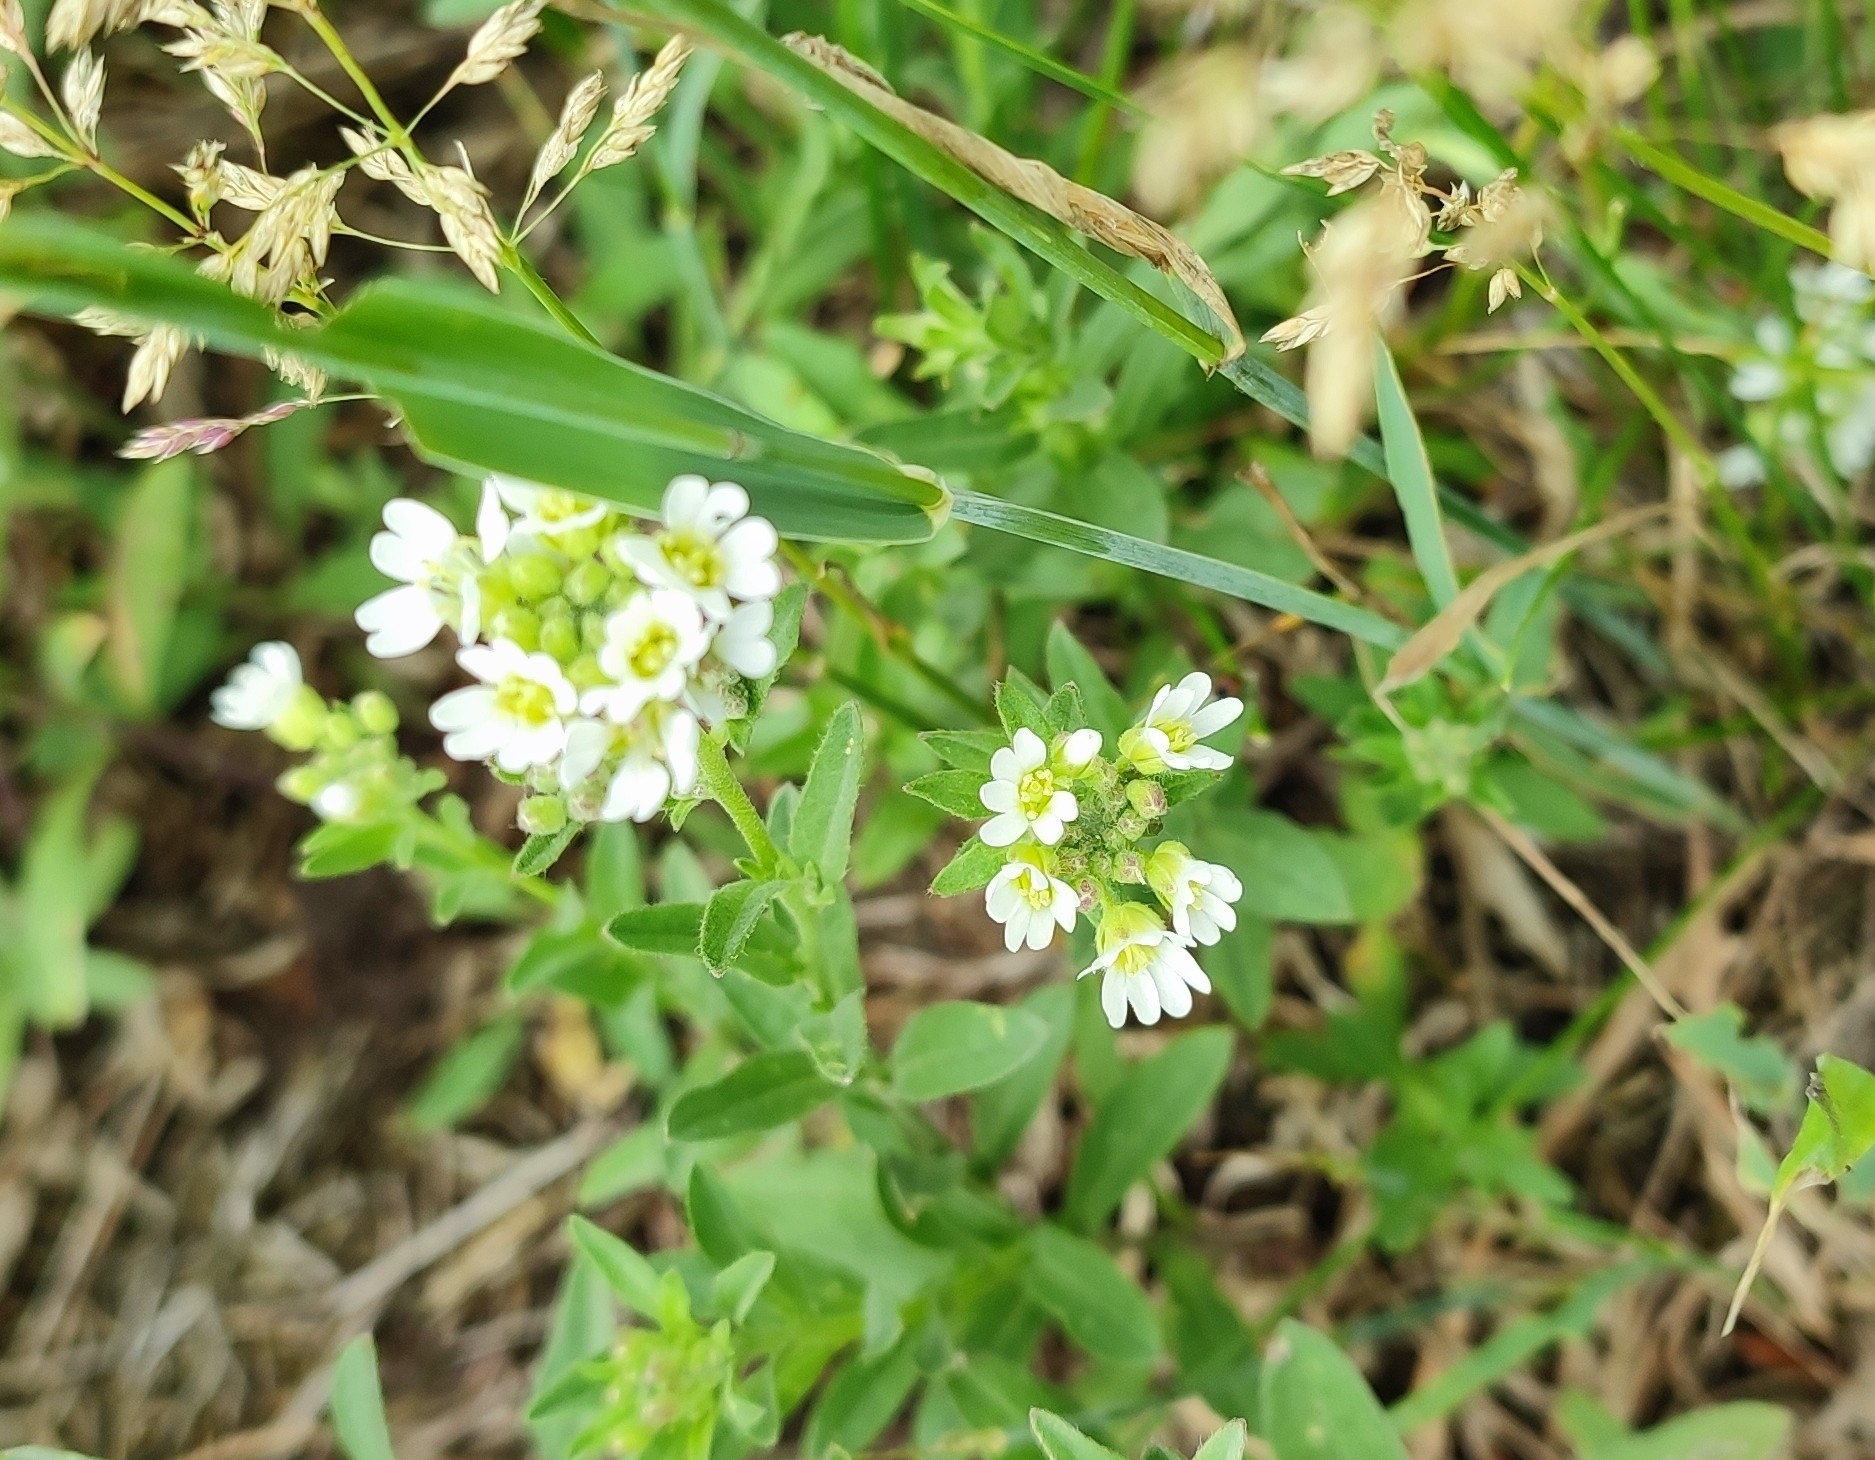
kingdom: Plantae
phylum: Tracheophyta
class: Magnoliopsida
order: Brassicales
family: Brassicaceae
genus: Berteroa
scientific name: Berteroa incana
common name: Hoary alison
